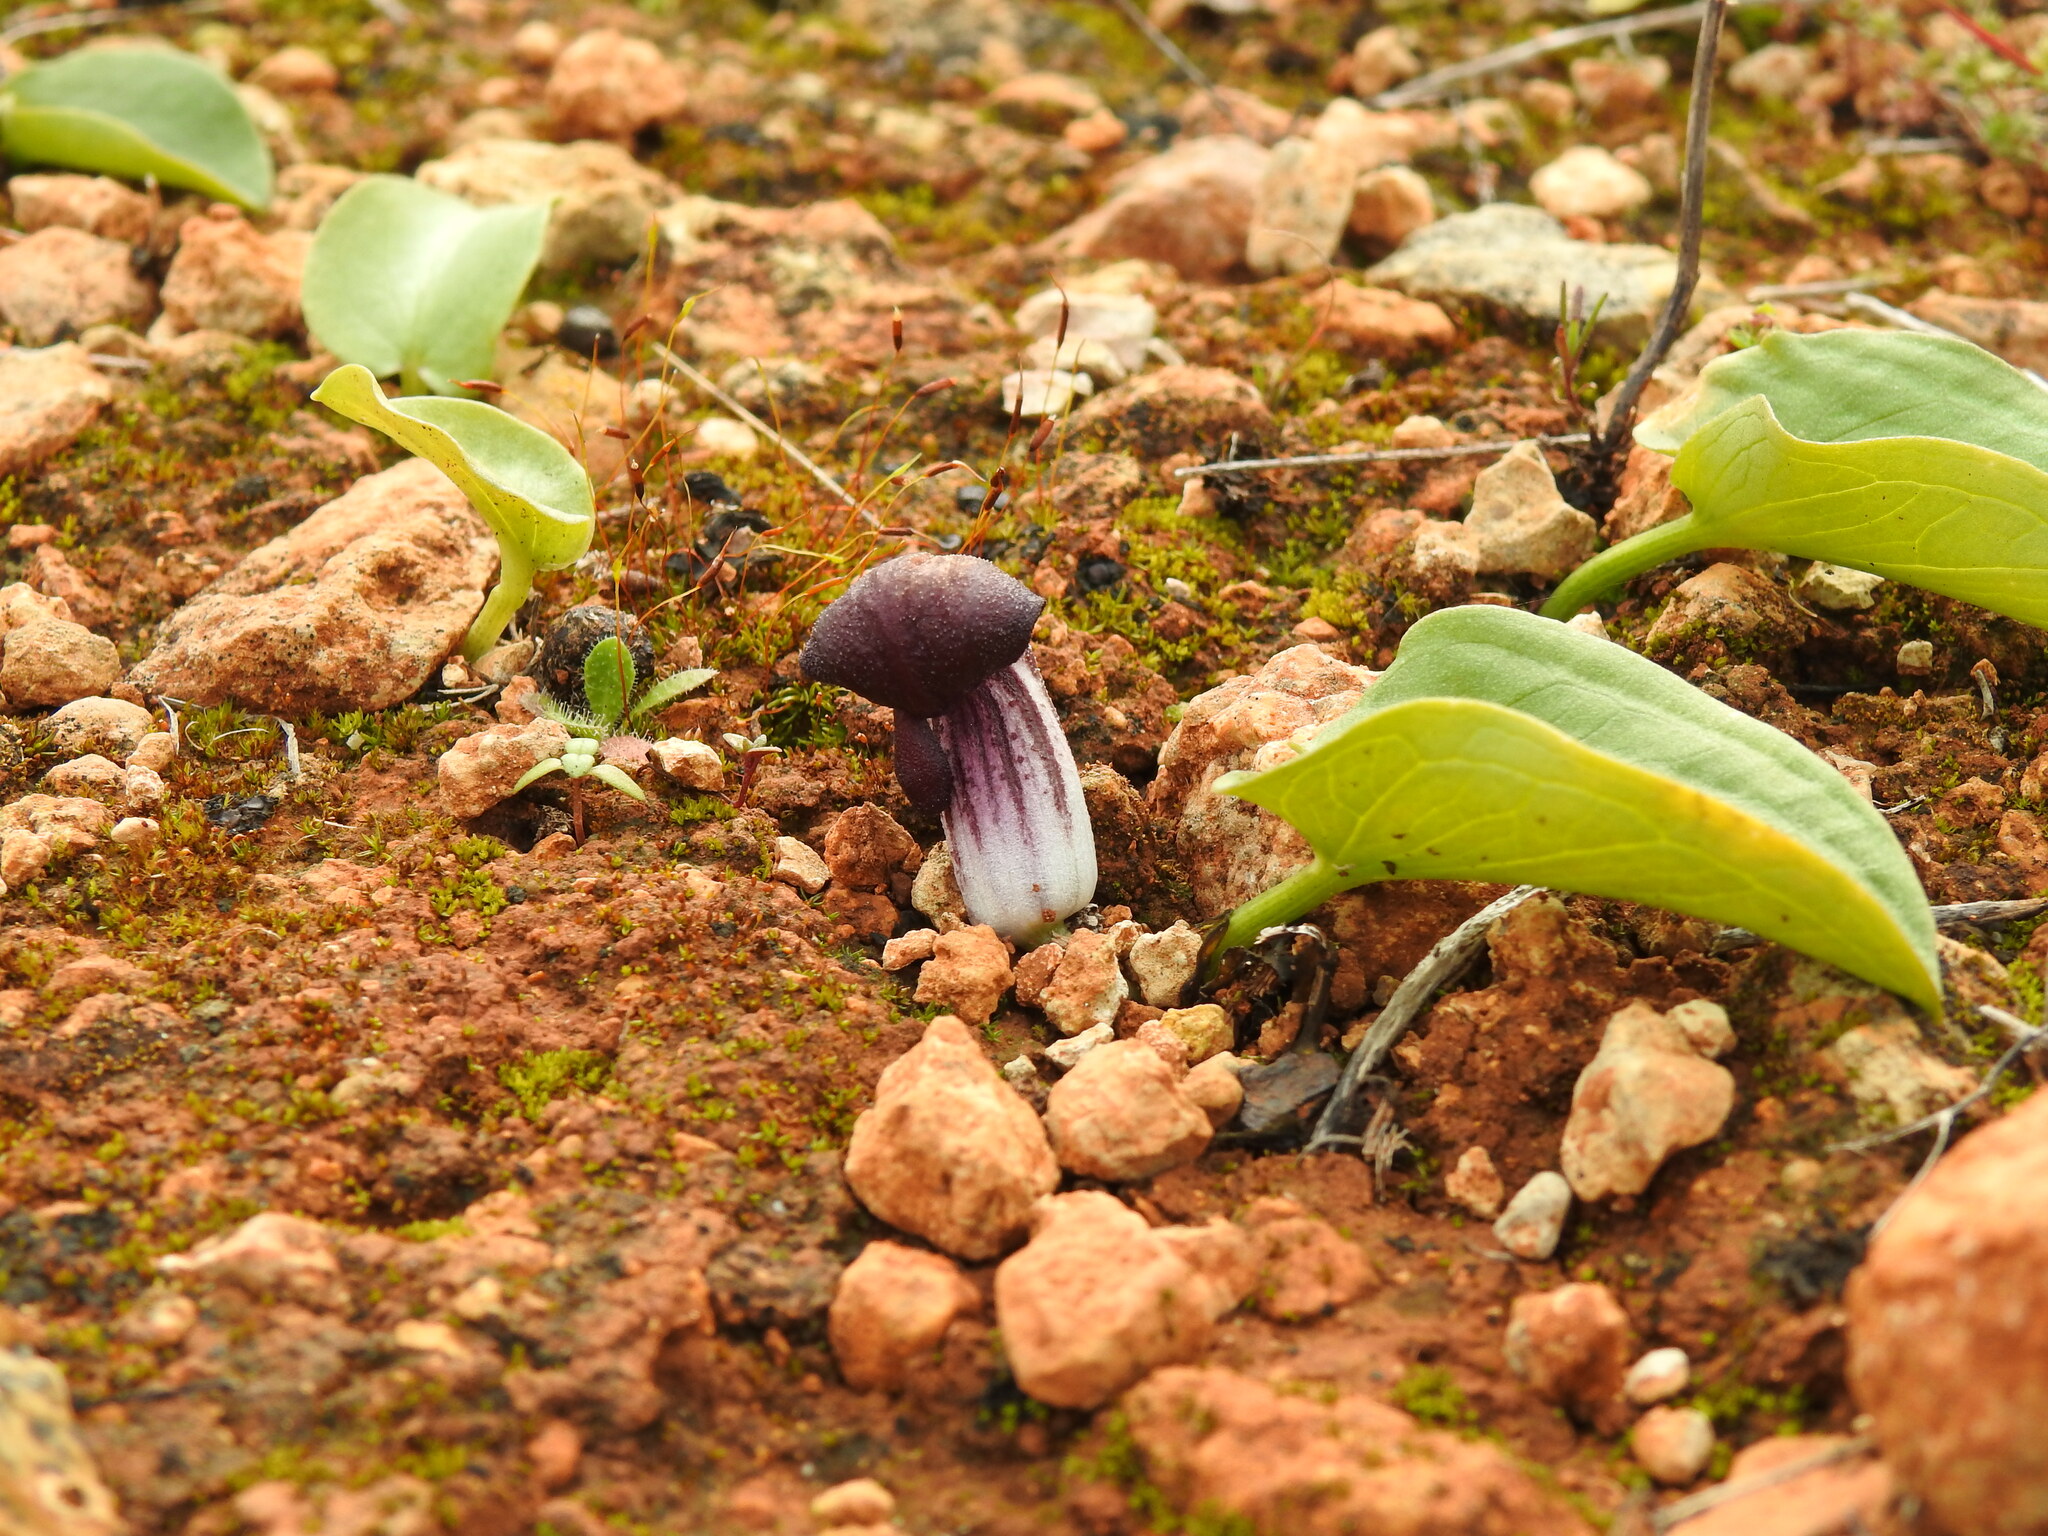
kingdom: Plantae
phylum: Tracheophyta
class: Liliopsida
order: Alismatales
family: Araceae
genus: Arisarum
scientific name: Arisarum simorrhinum
